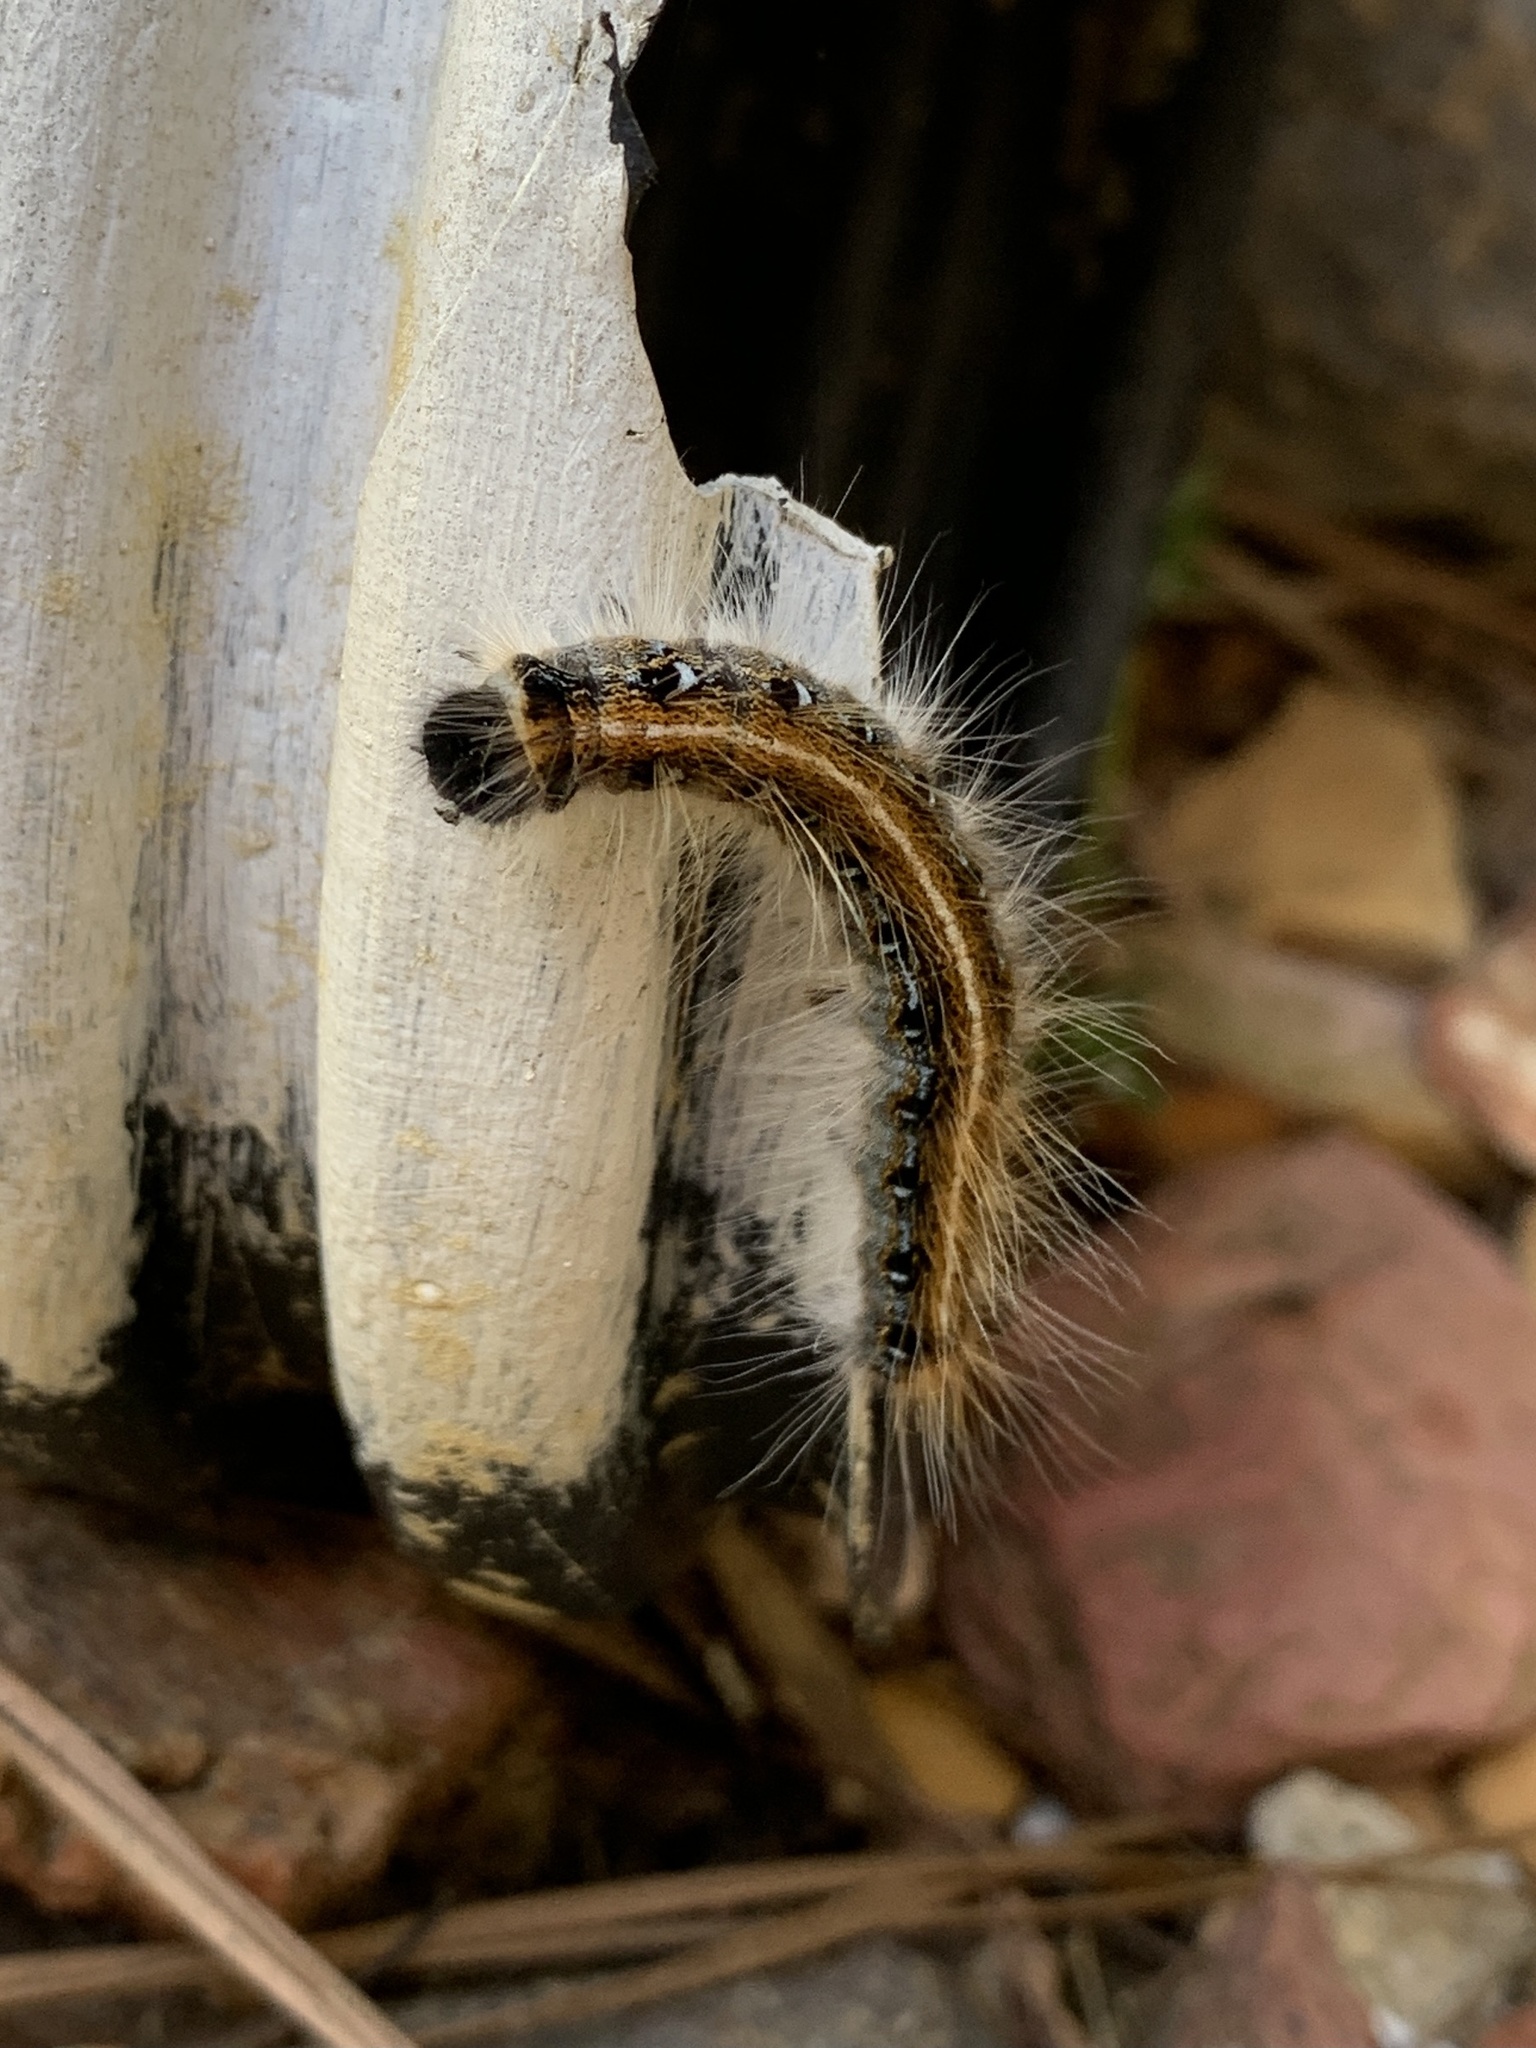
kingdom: Animalia
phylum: Arthropoda
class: Insecta
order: Lepidoptera
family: Lasiocampidae
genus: Malacosoma
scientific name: Malacosoma americana
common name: Eastern tent caterpillar moth
